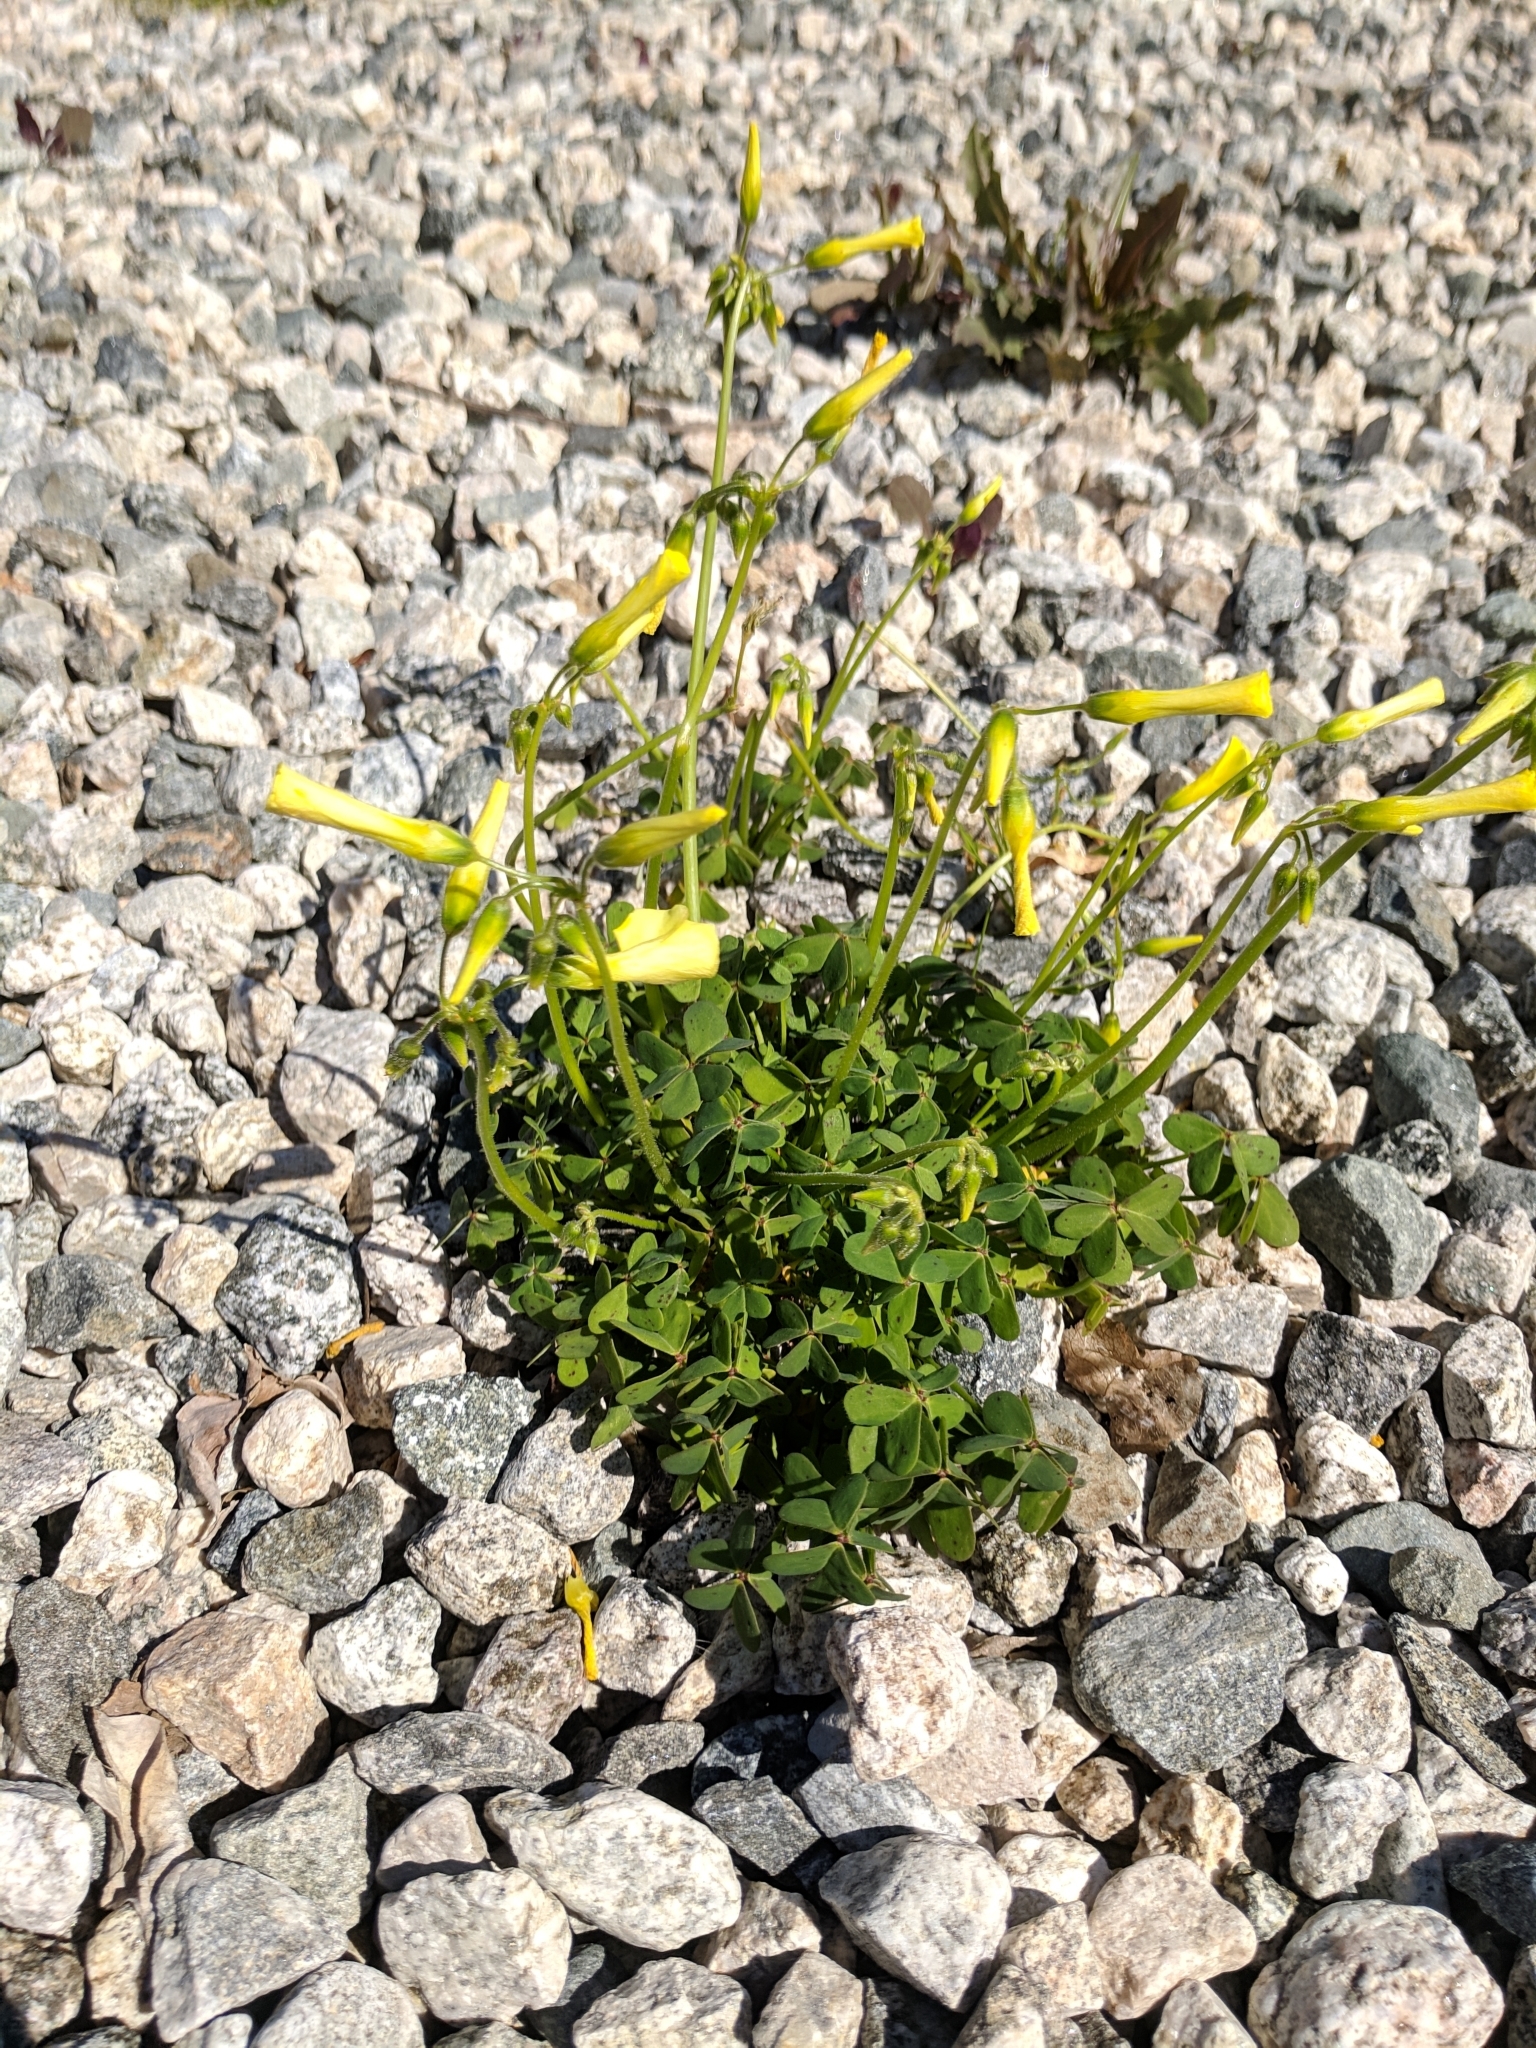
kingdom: Plantae
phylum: Tracheophyta
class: Magnoliopsida
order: Oxalidales
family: Oxalidaceae
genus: Oxalis
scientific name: Oxalis pes-caprae
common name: Bermuda-buttercup
